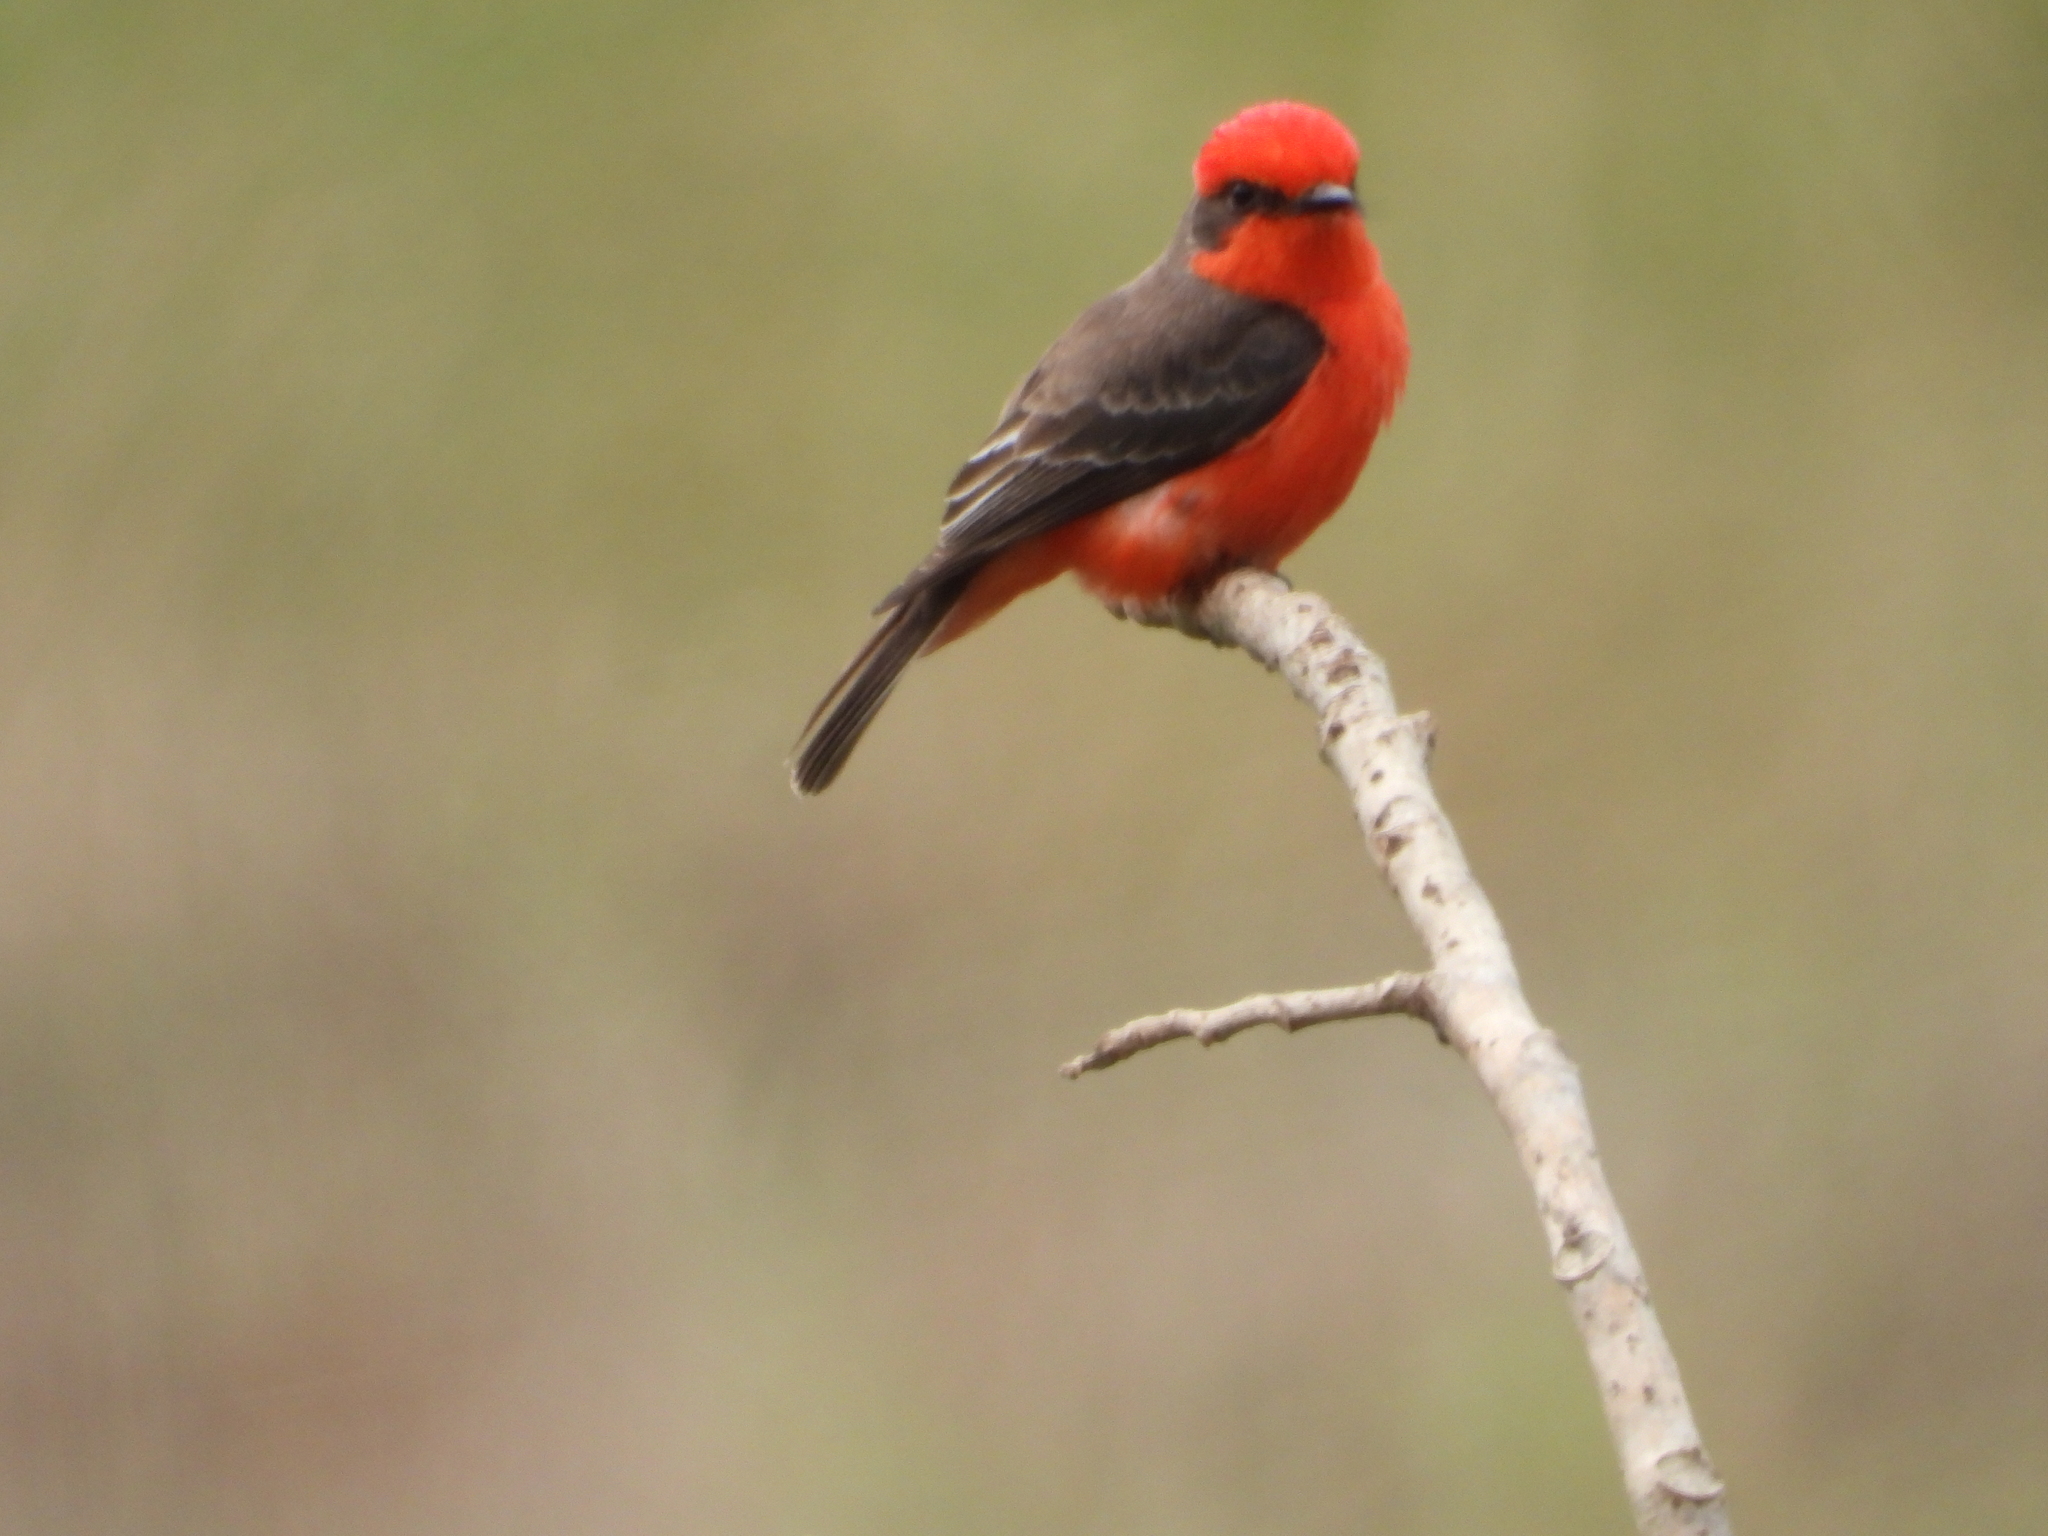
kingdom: Animalia
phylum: Chordata
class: Aves
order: Passeriformes
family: Tyrannidae
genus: Pyrocephalus
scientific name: Pyrocephalus rubinus
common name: Vermilion flycatcher
